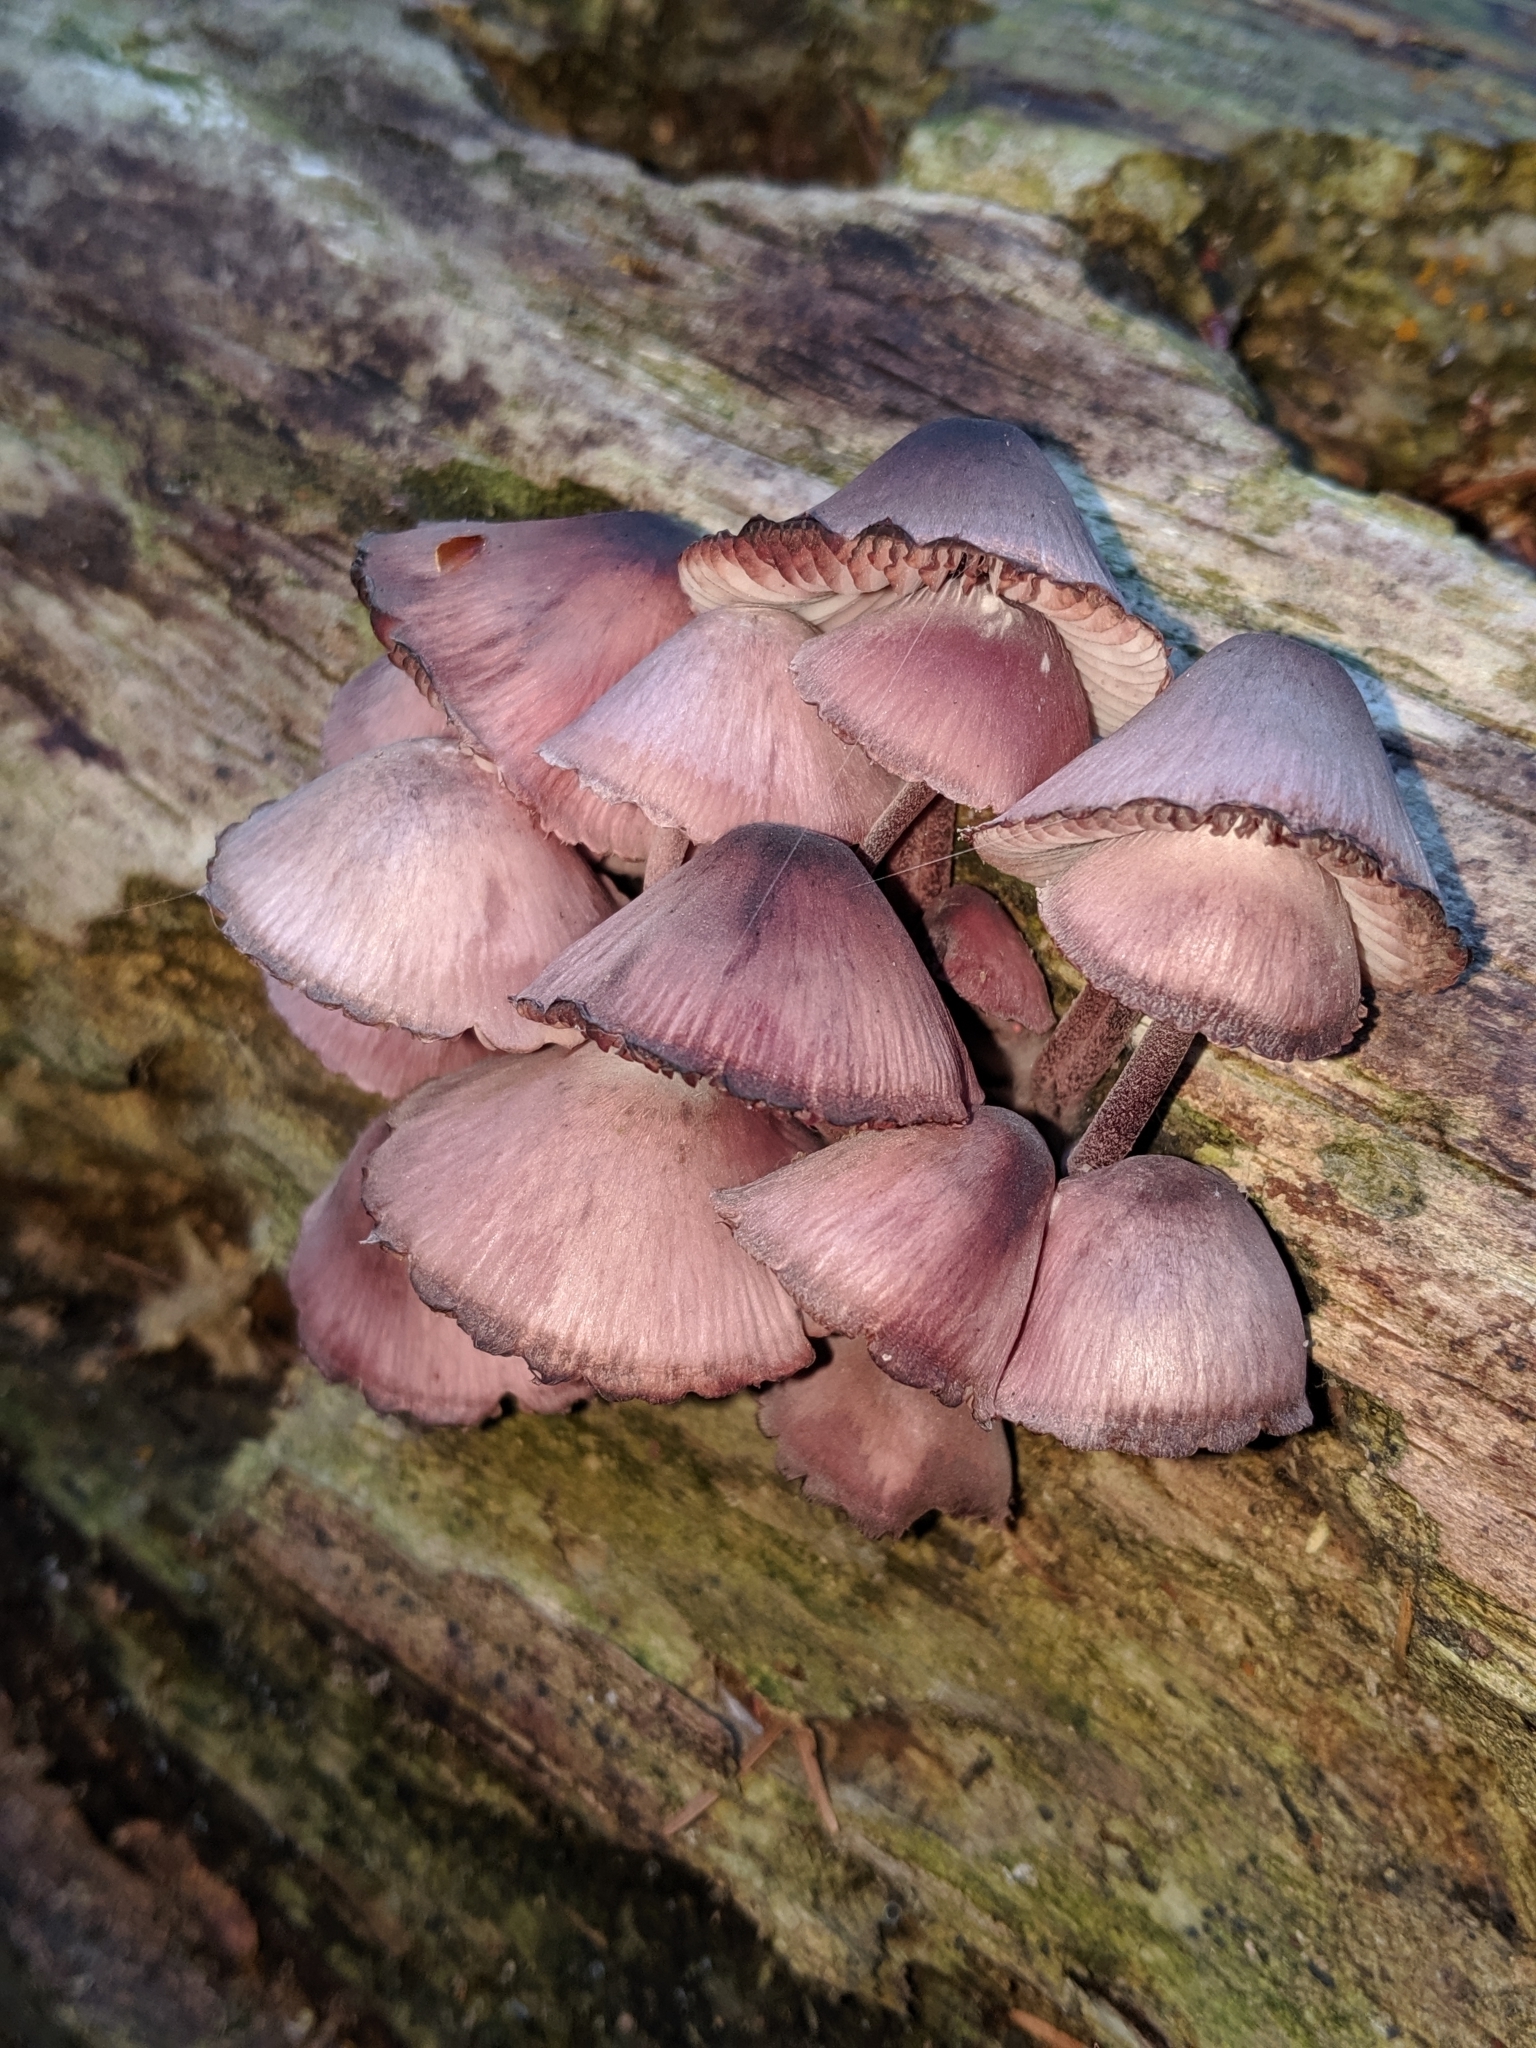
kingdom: Fungi
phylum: Basidiomycota
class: Agaricomycetes
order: Agaricales
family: Mycenaceae
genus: Mycena
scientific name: Mycena haematopus
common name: Burgundydrop bonnet
